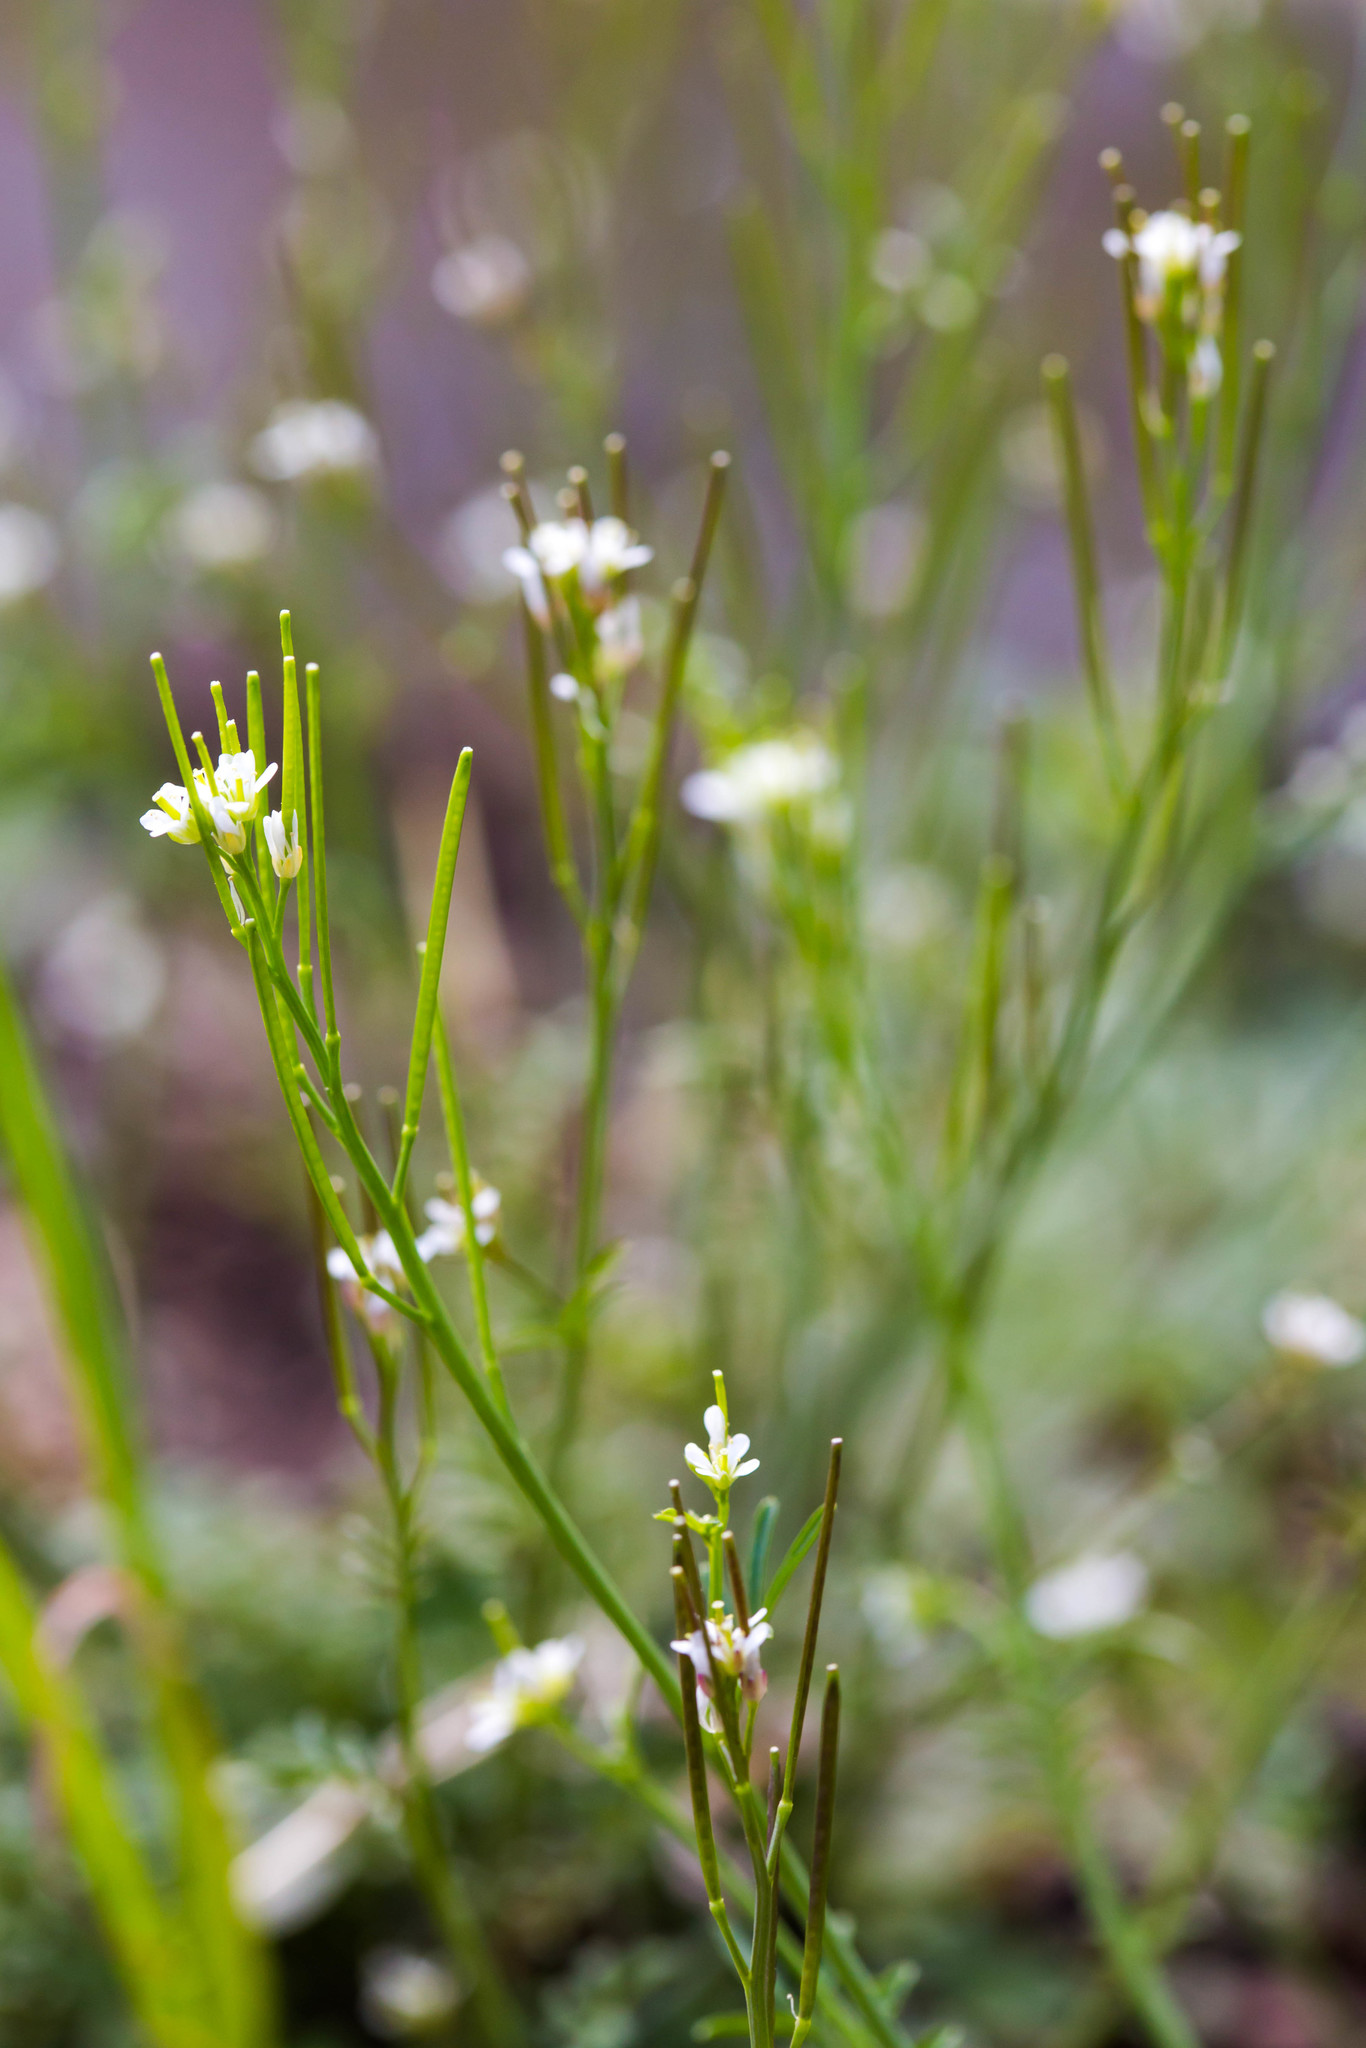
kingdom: Plantae
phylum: Tracheophyta
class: Magnoliopsida
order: Brassicales
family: Brassicaceae
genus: Cardamine
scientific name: Cardamine hirsuta
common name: Hairy bittercress
